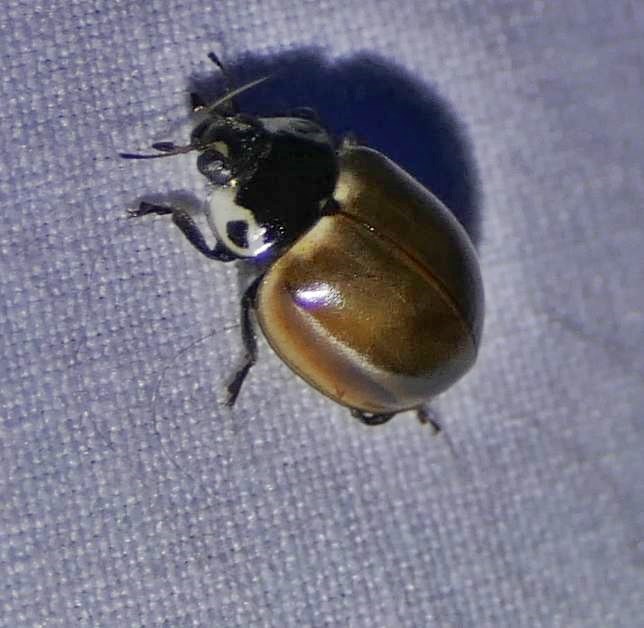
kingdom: Animalia
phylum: Arthropoda
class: Insecta
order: Coleoptera
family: Coccinellidae
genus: Myzia
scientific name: Myzia pullata
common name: Streaked lady beetle
